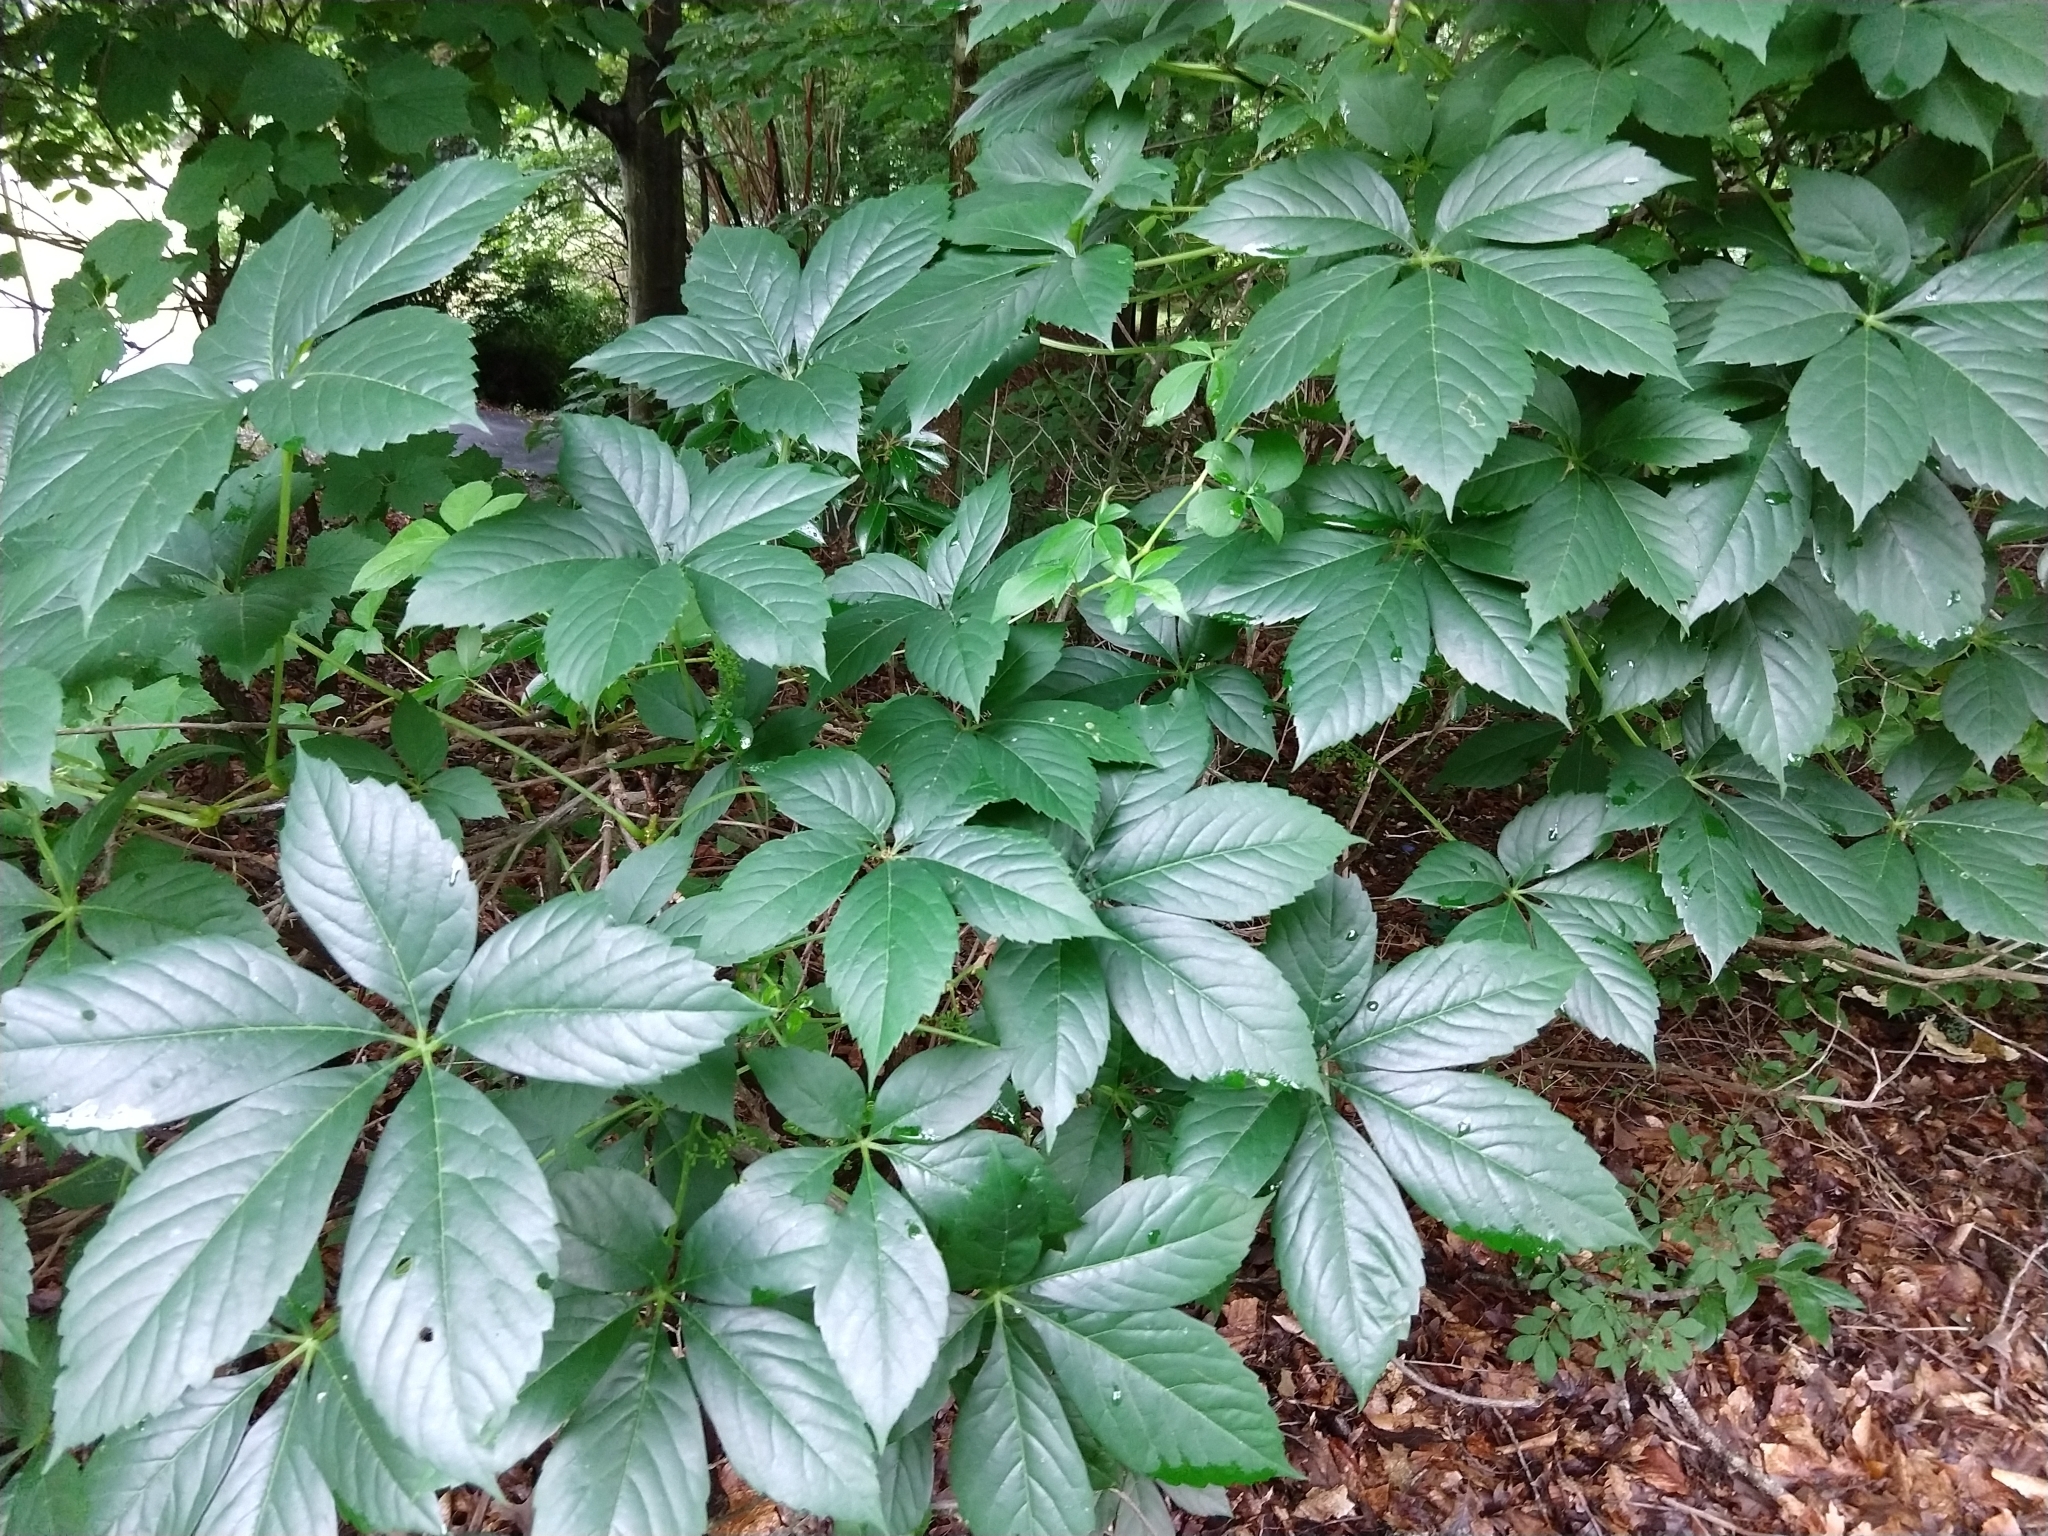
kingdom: Plantae
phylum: Tracheophyta
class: Magnoliopsida
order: Vitales
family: Vitaceae
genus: Parthenocissus
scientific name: Parthenocissus quinquefolia
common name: Virginia-creeper
